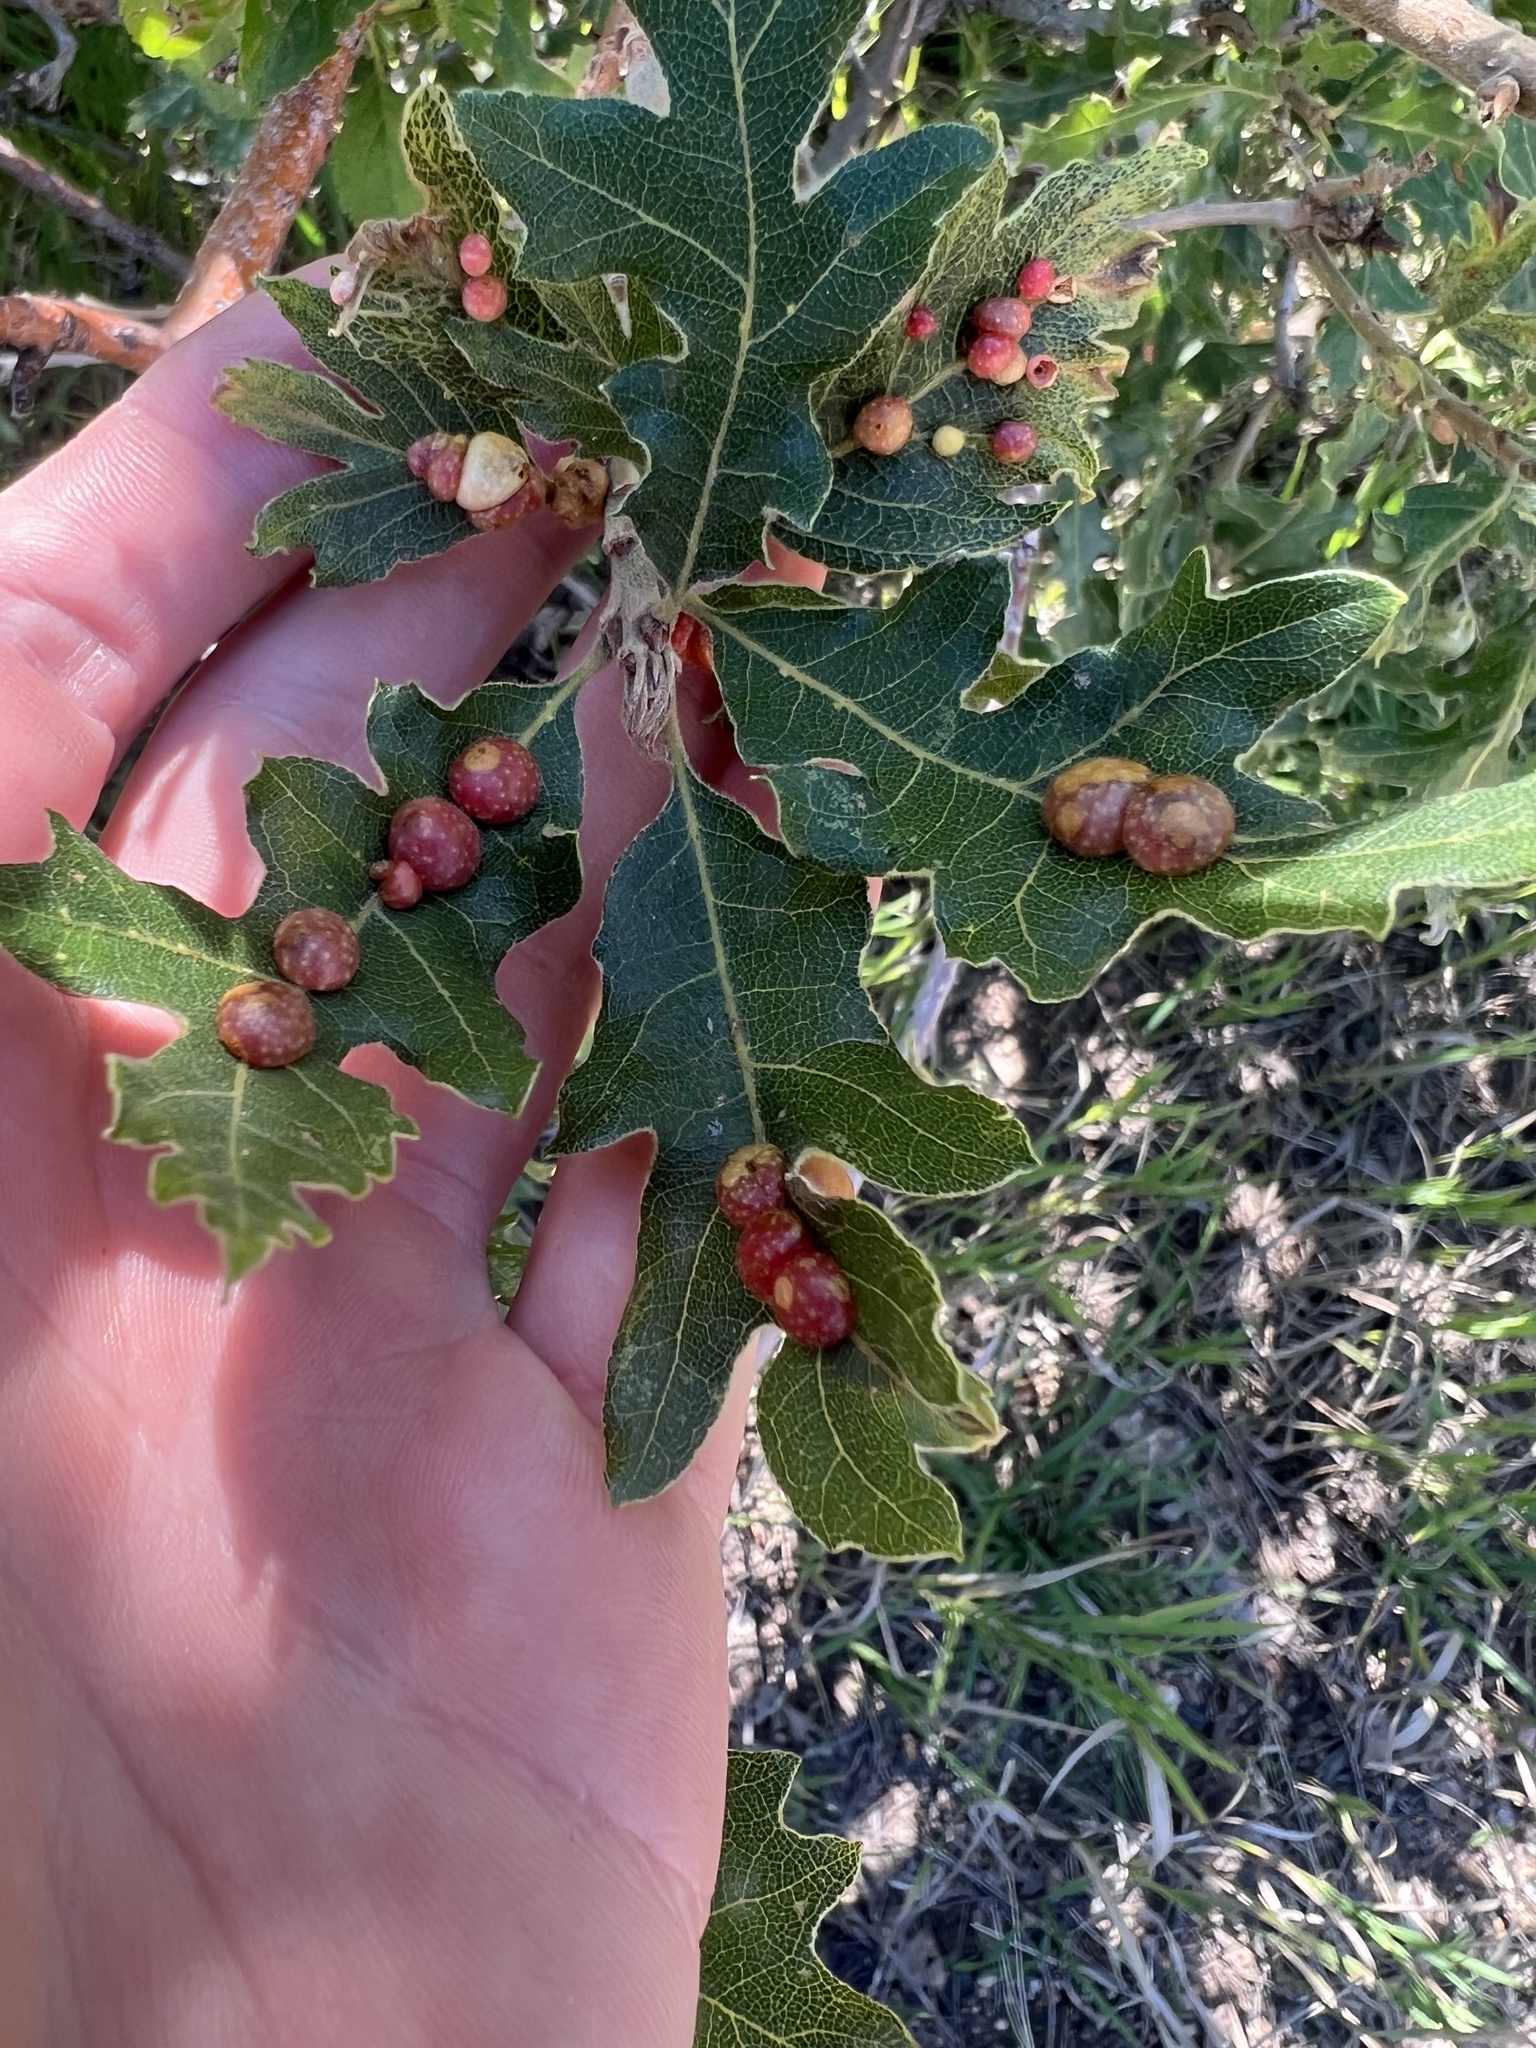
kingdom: Animalia
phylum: Arthropoda
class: Insecta
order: Hymenoptera
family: Cynipidae
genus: Trigonaspis
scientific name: Trigonaspis
